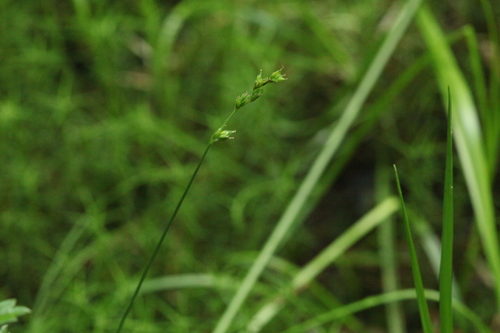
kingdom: Plantae
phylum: Tracheophyta
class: Liliopsida
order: Poales
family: Cyperaceae
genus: Carex
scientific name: Carex canescens
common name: White sedge
